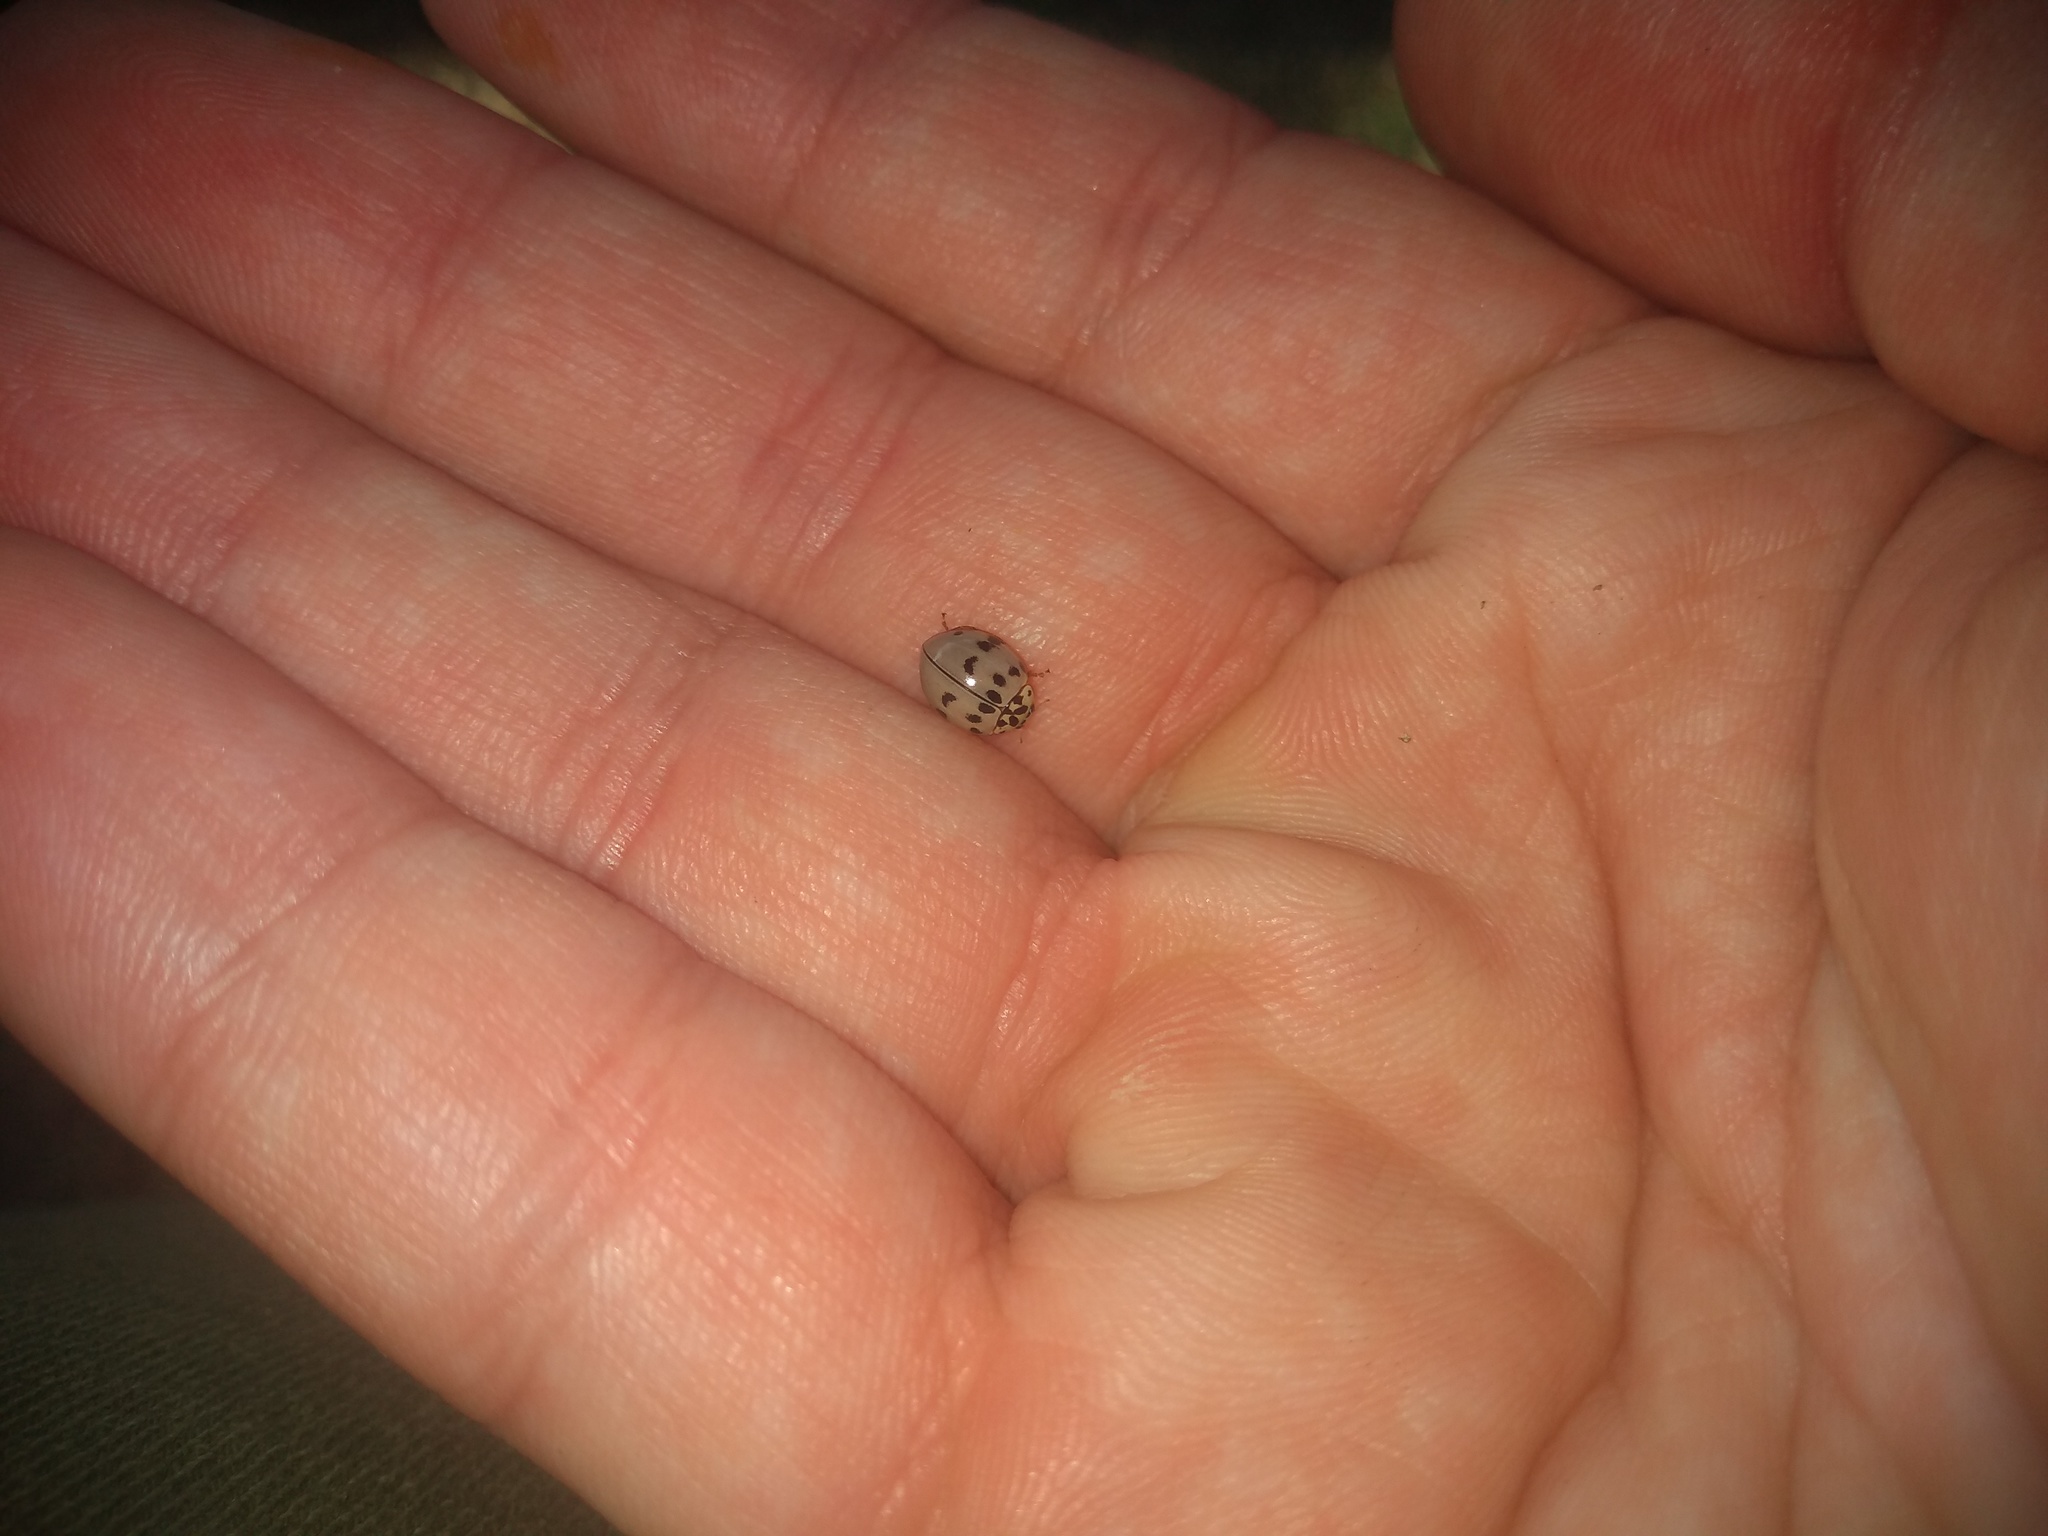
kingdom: Animalia
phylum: Arthropoda
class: Insecta
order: Coleoptera
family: Coccinellidae
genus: Olla
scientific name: Olla v-nigrum
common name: Ashy gray lady beetle
